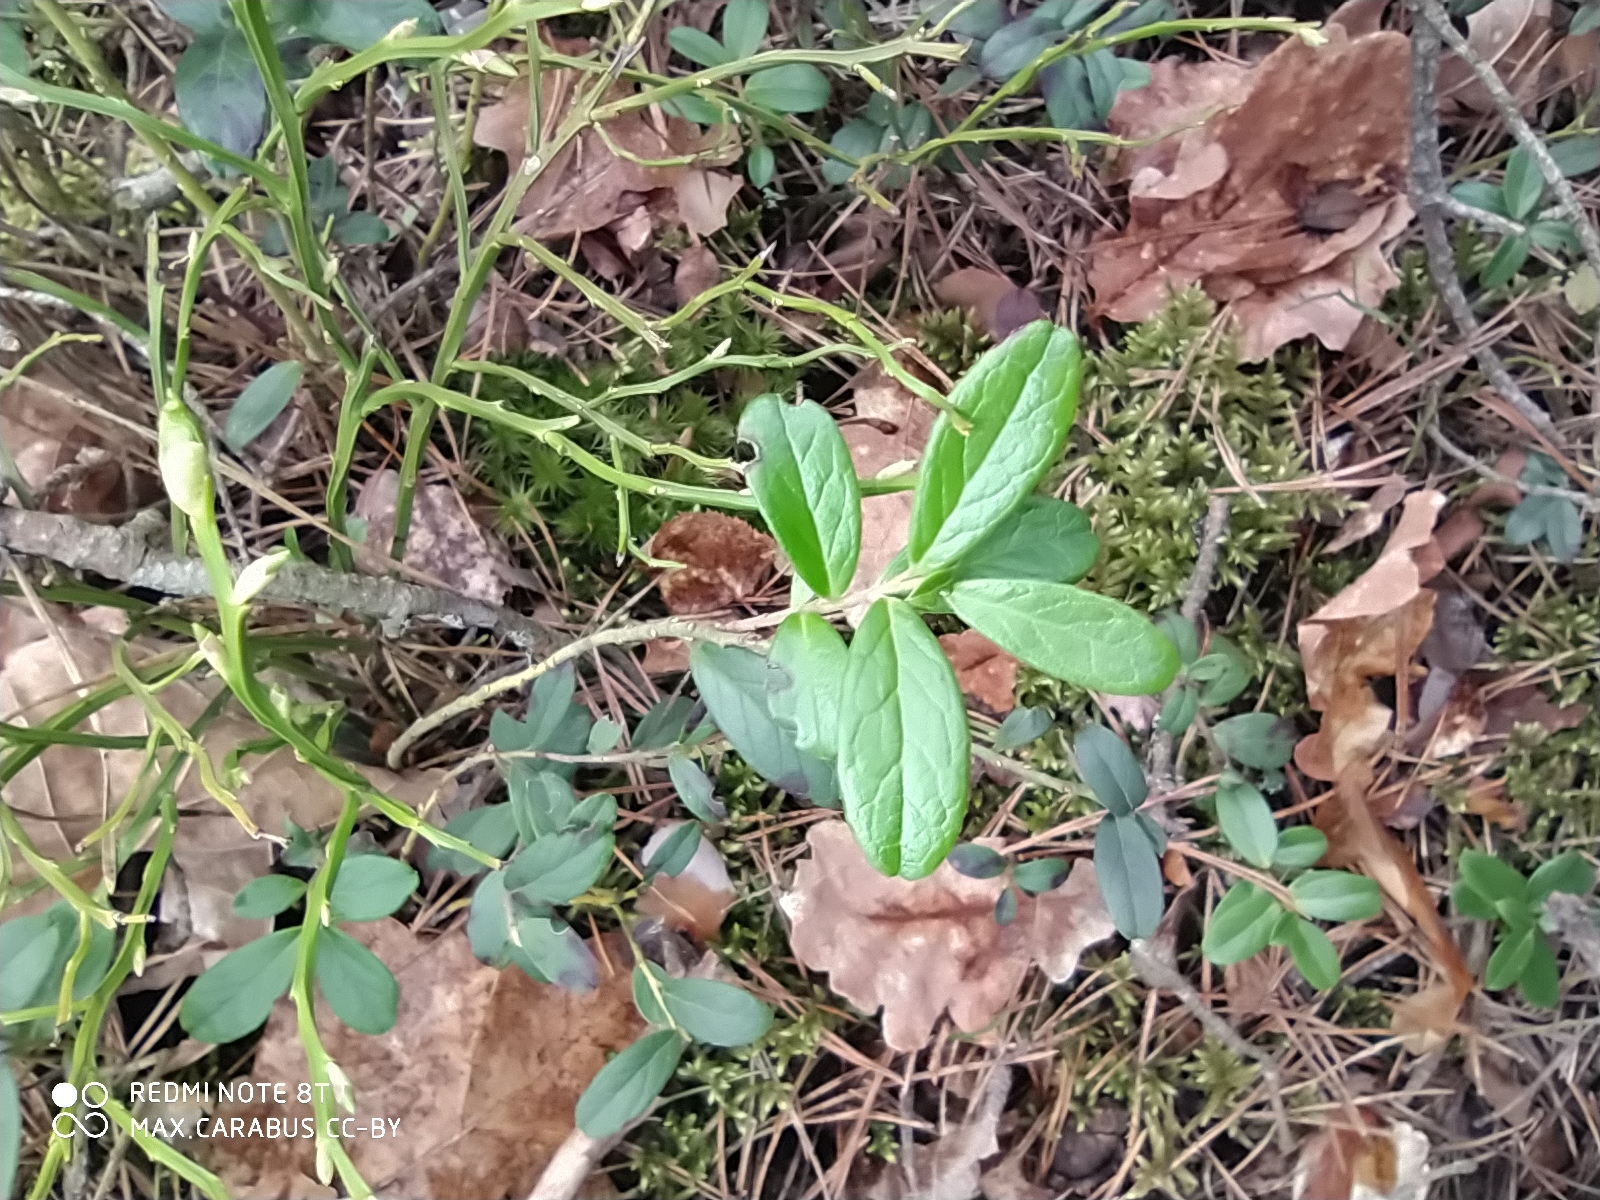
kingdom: Plantae
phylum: Tracheophyta
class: Magnoliopsida
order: Ericales
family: Ericaceae
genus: Vaccinium
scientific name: Vaccinium vitis-idaea
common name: Cowberry
